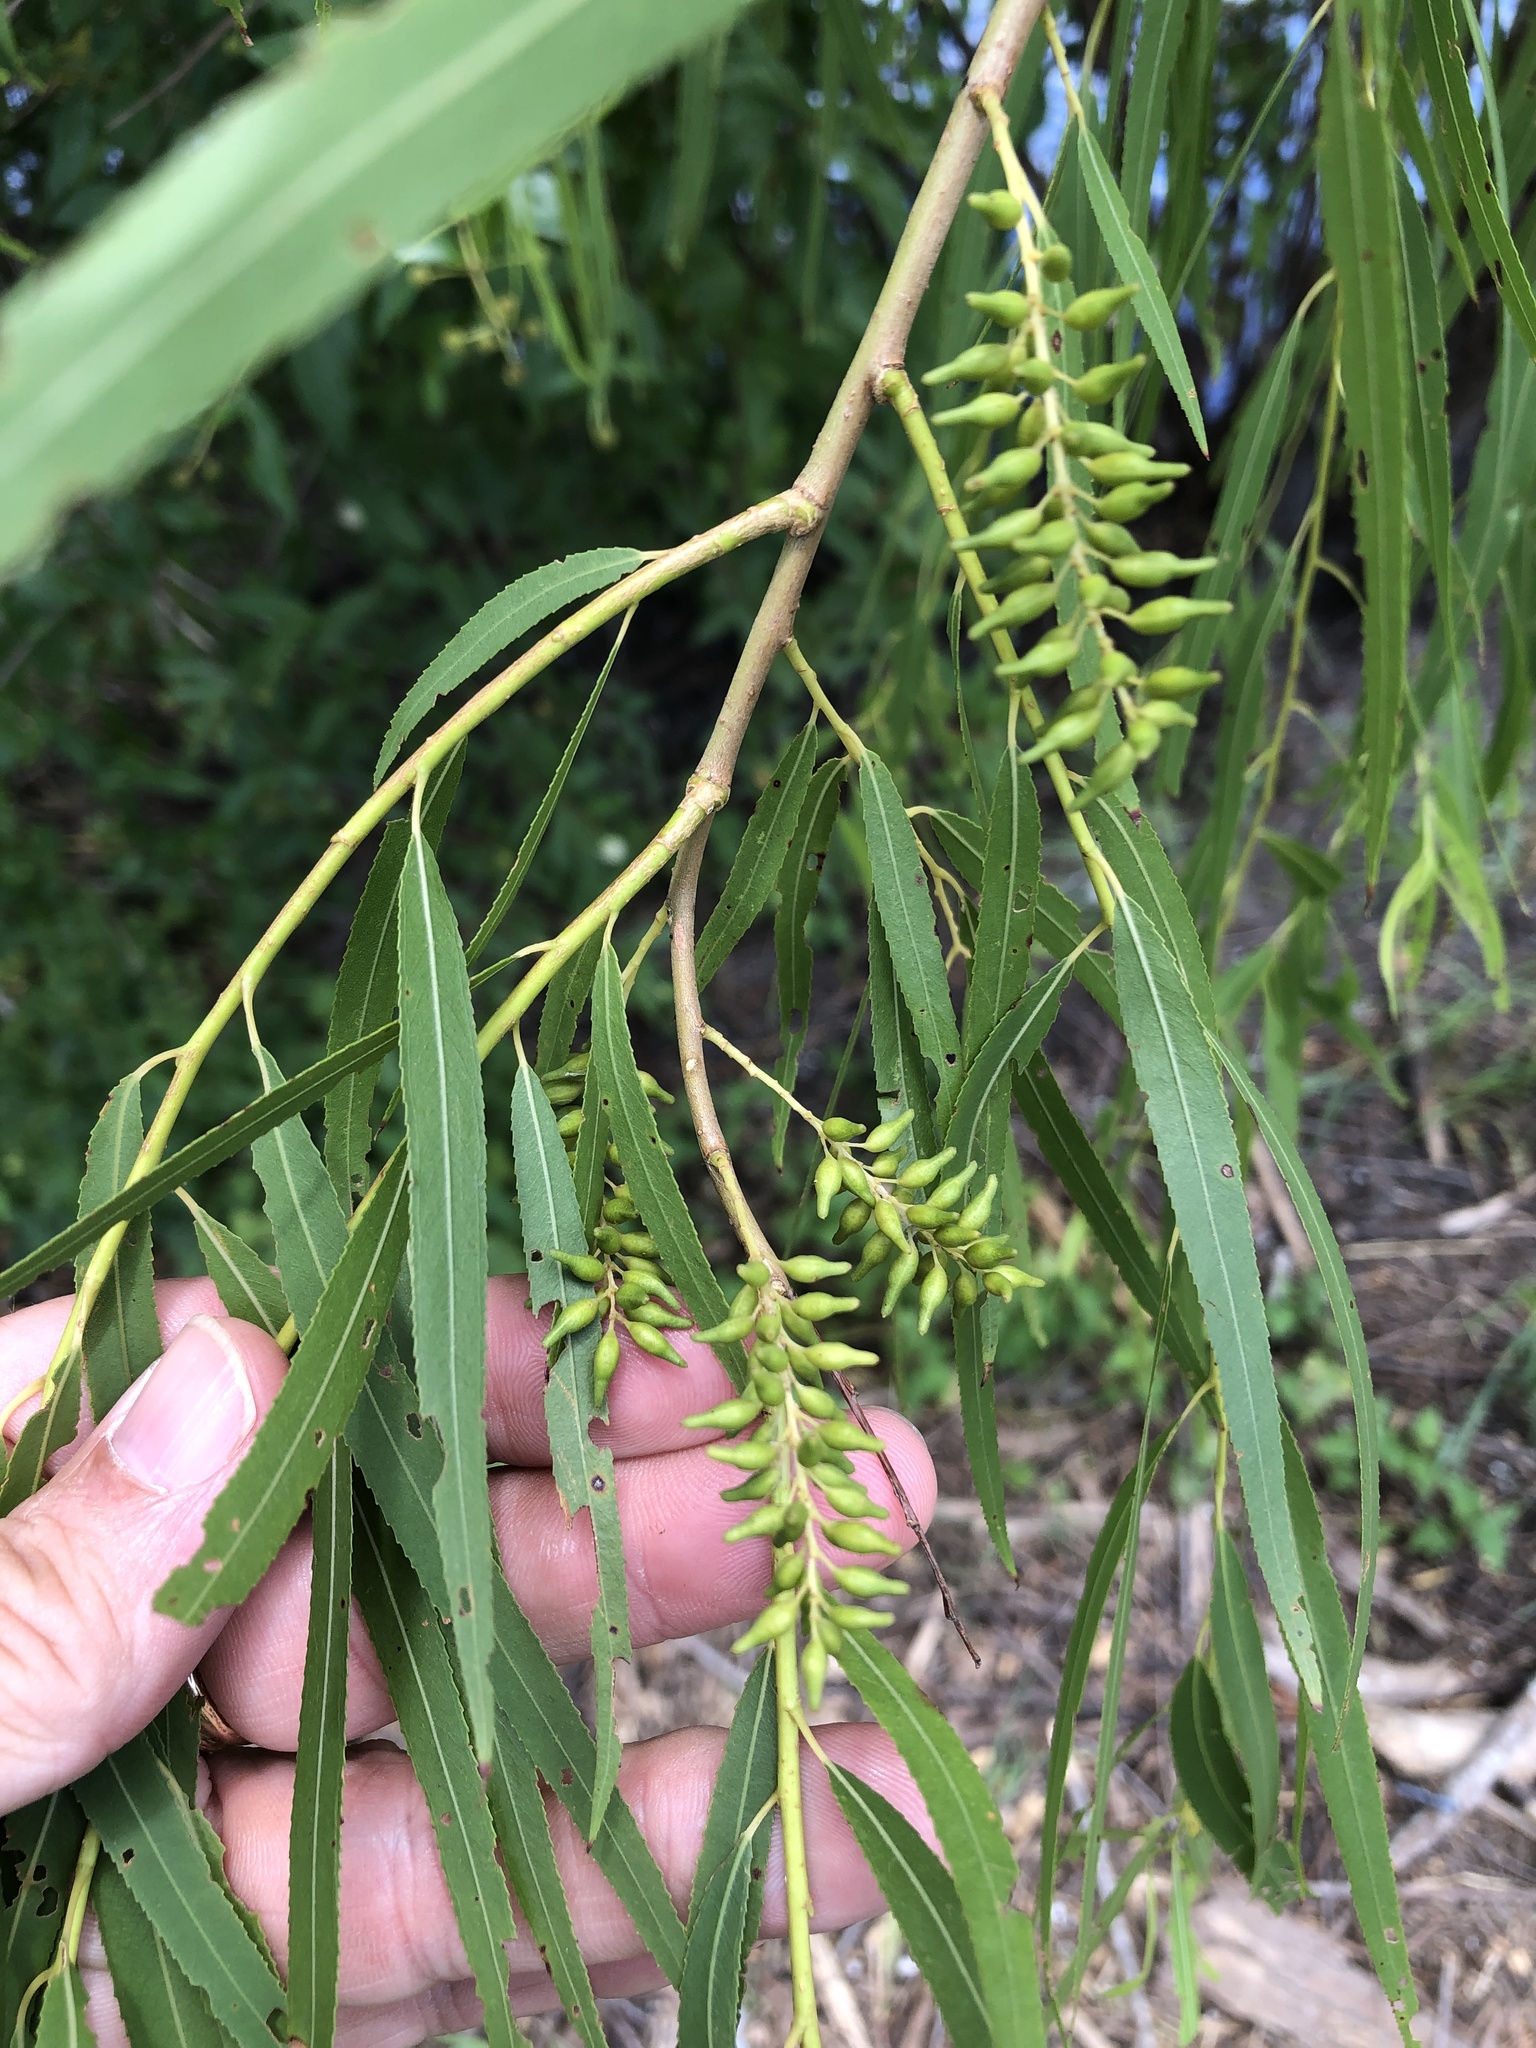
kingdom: Plantae
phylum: Tracheophyta
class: Magnoliopsida
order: Malpighiales
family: Salicaceae
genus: Salix
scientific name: Salix nigra
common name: Black willow
